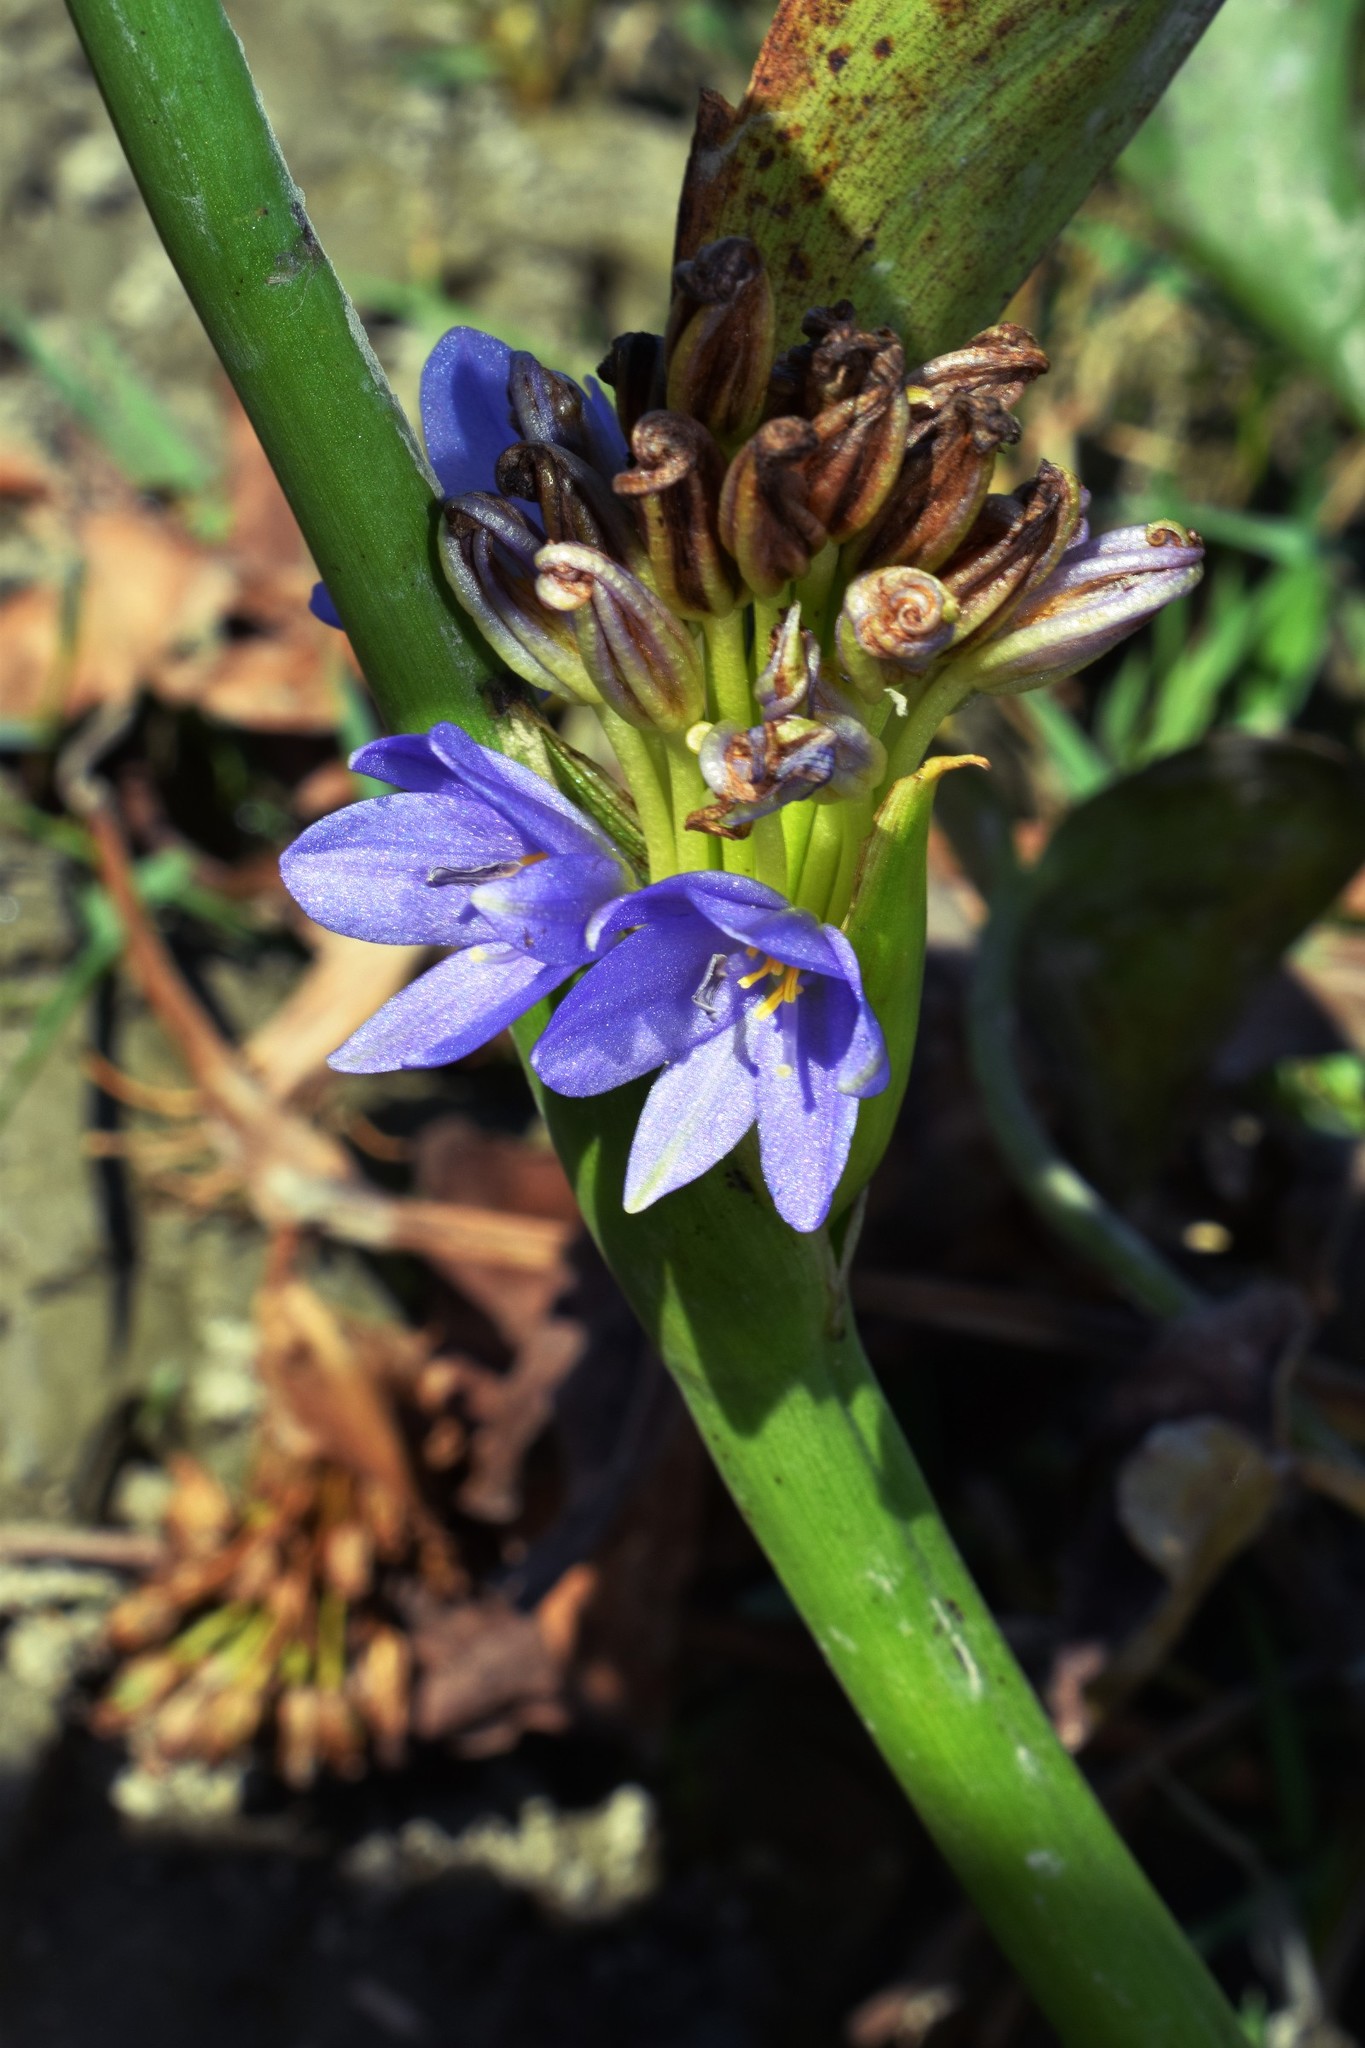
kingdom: Plantae
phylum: Tracheophyta
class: Liliopsida
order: Commelinales
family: Pontederiaceae
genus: Pontederia
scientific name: Pontederia hastata
